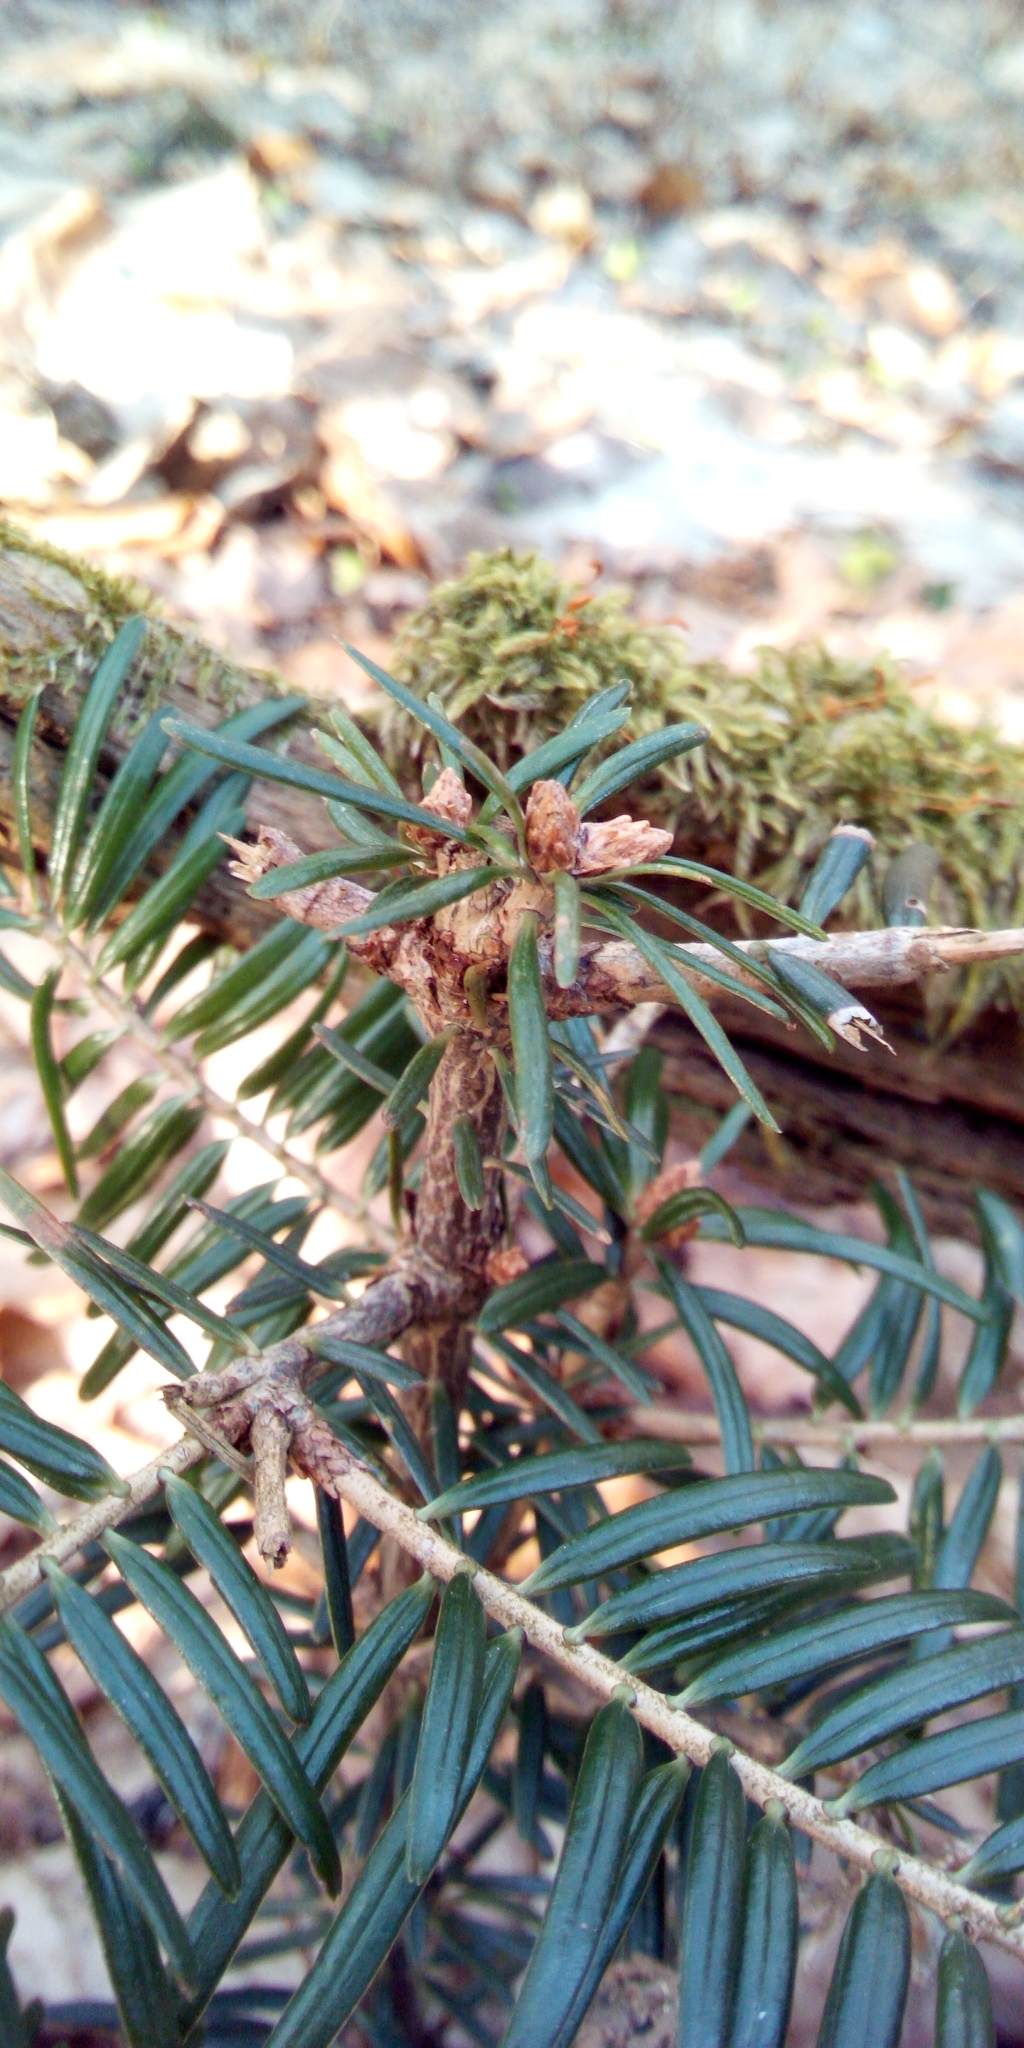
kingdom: Plantae
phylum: Tracheophyta
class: Pinopsida
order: Pinales
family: Pinaceae
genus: Abies
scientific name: Abies alba
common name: Silver fir
